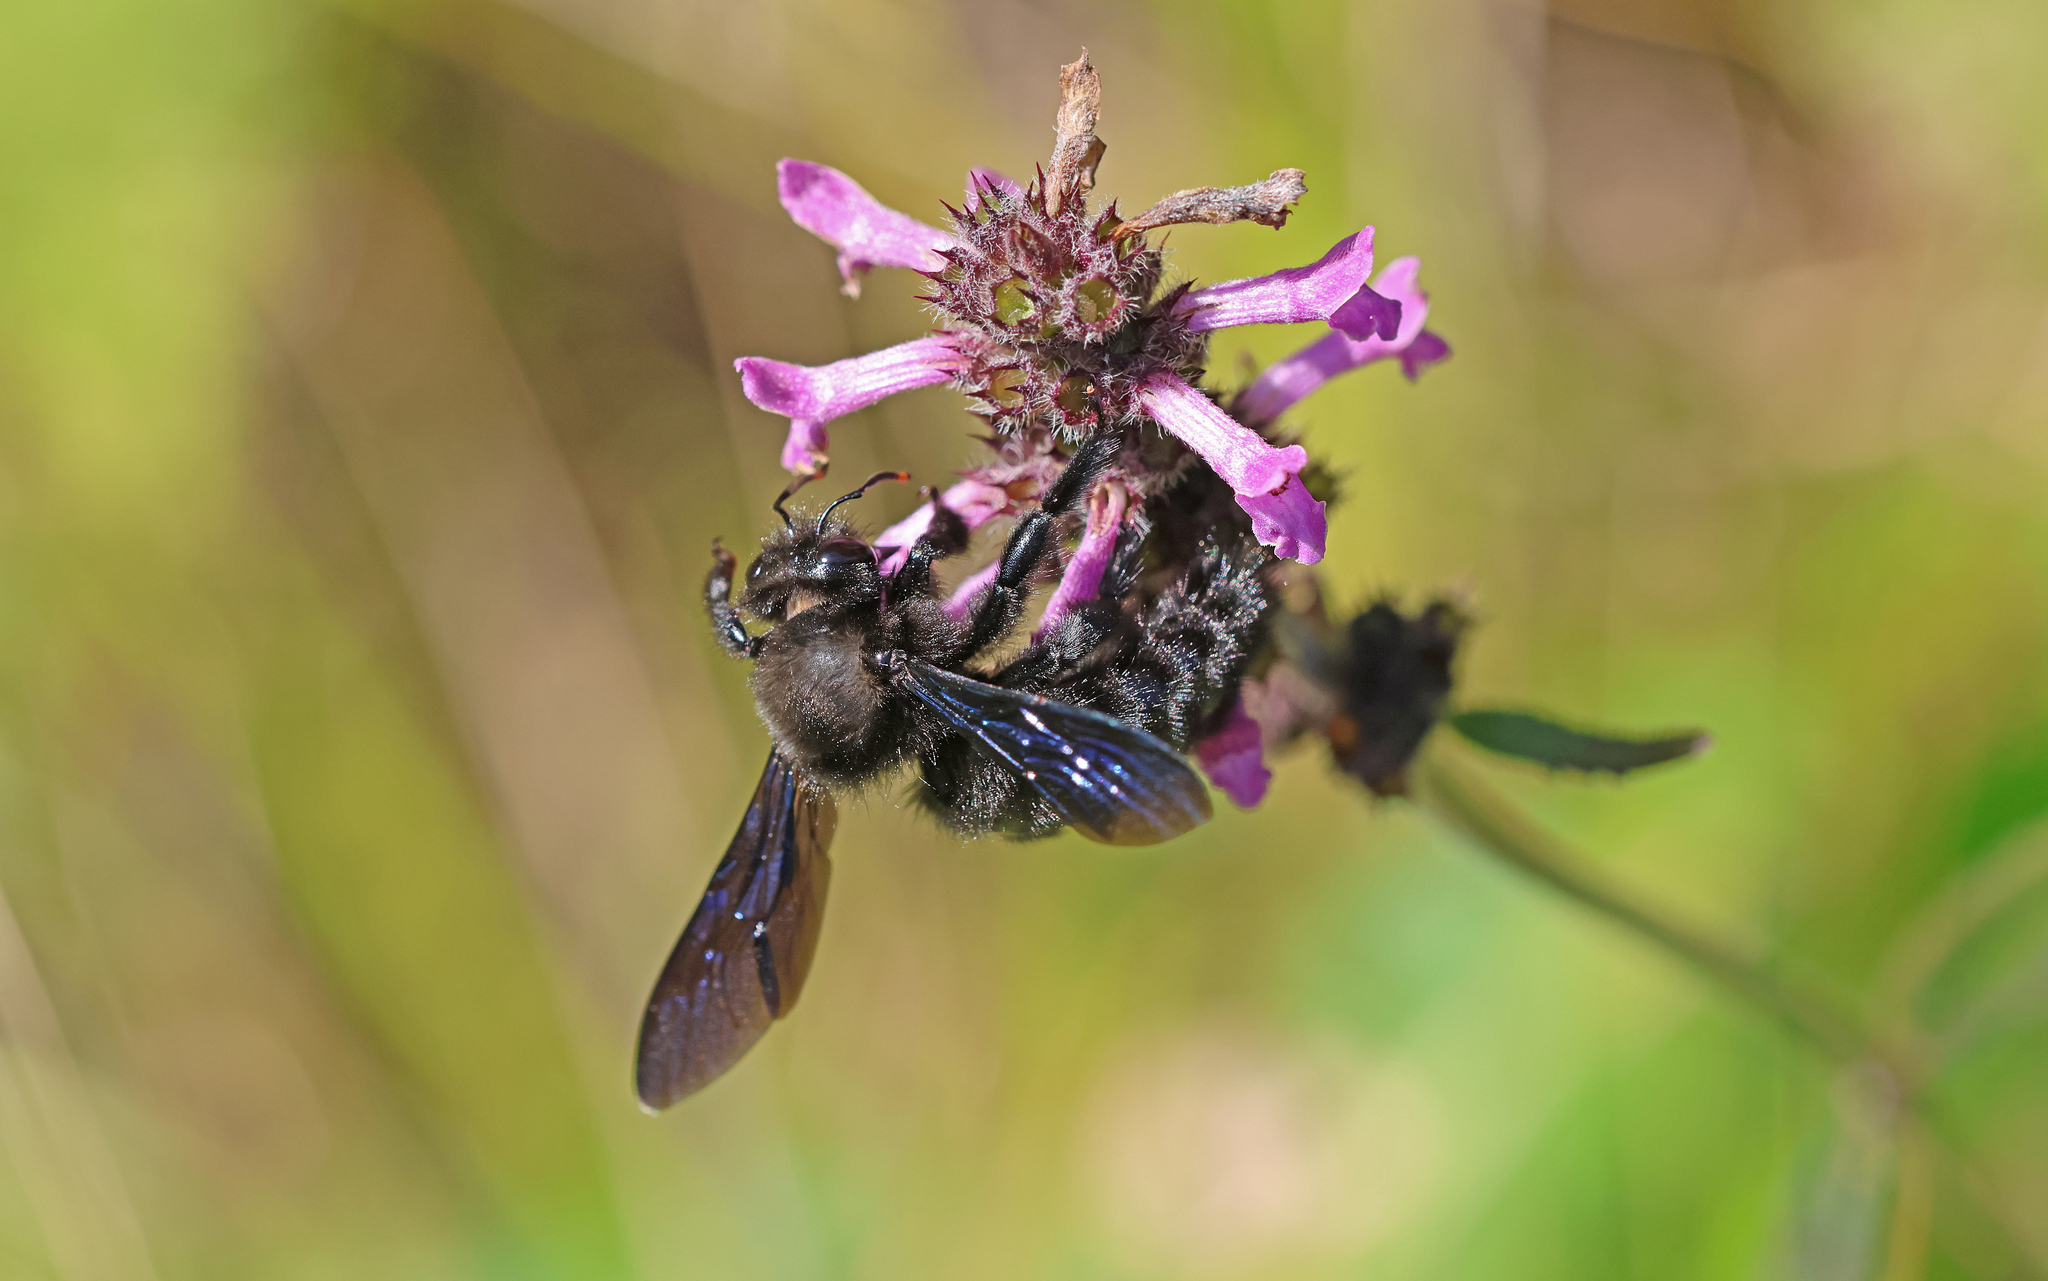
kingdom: Animalia
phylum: Arthropoda
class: Insecta
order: Hymenoptera
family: Apidae
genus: Xylocopa
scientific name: Xylocopa violacea
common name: Violet carpenter bee
